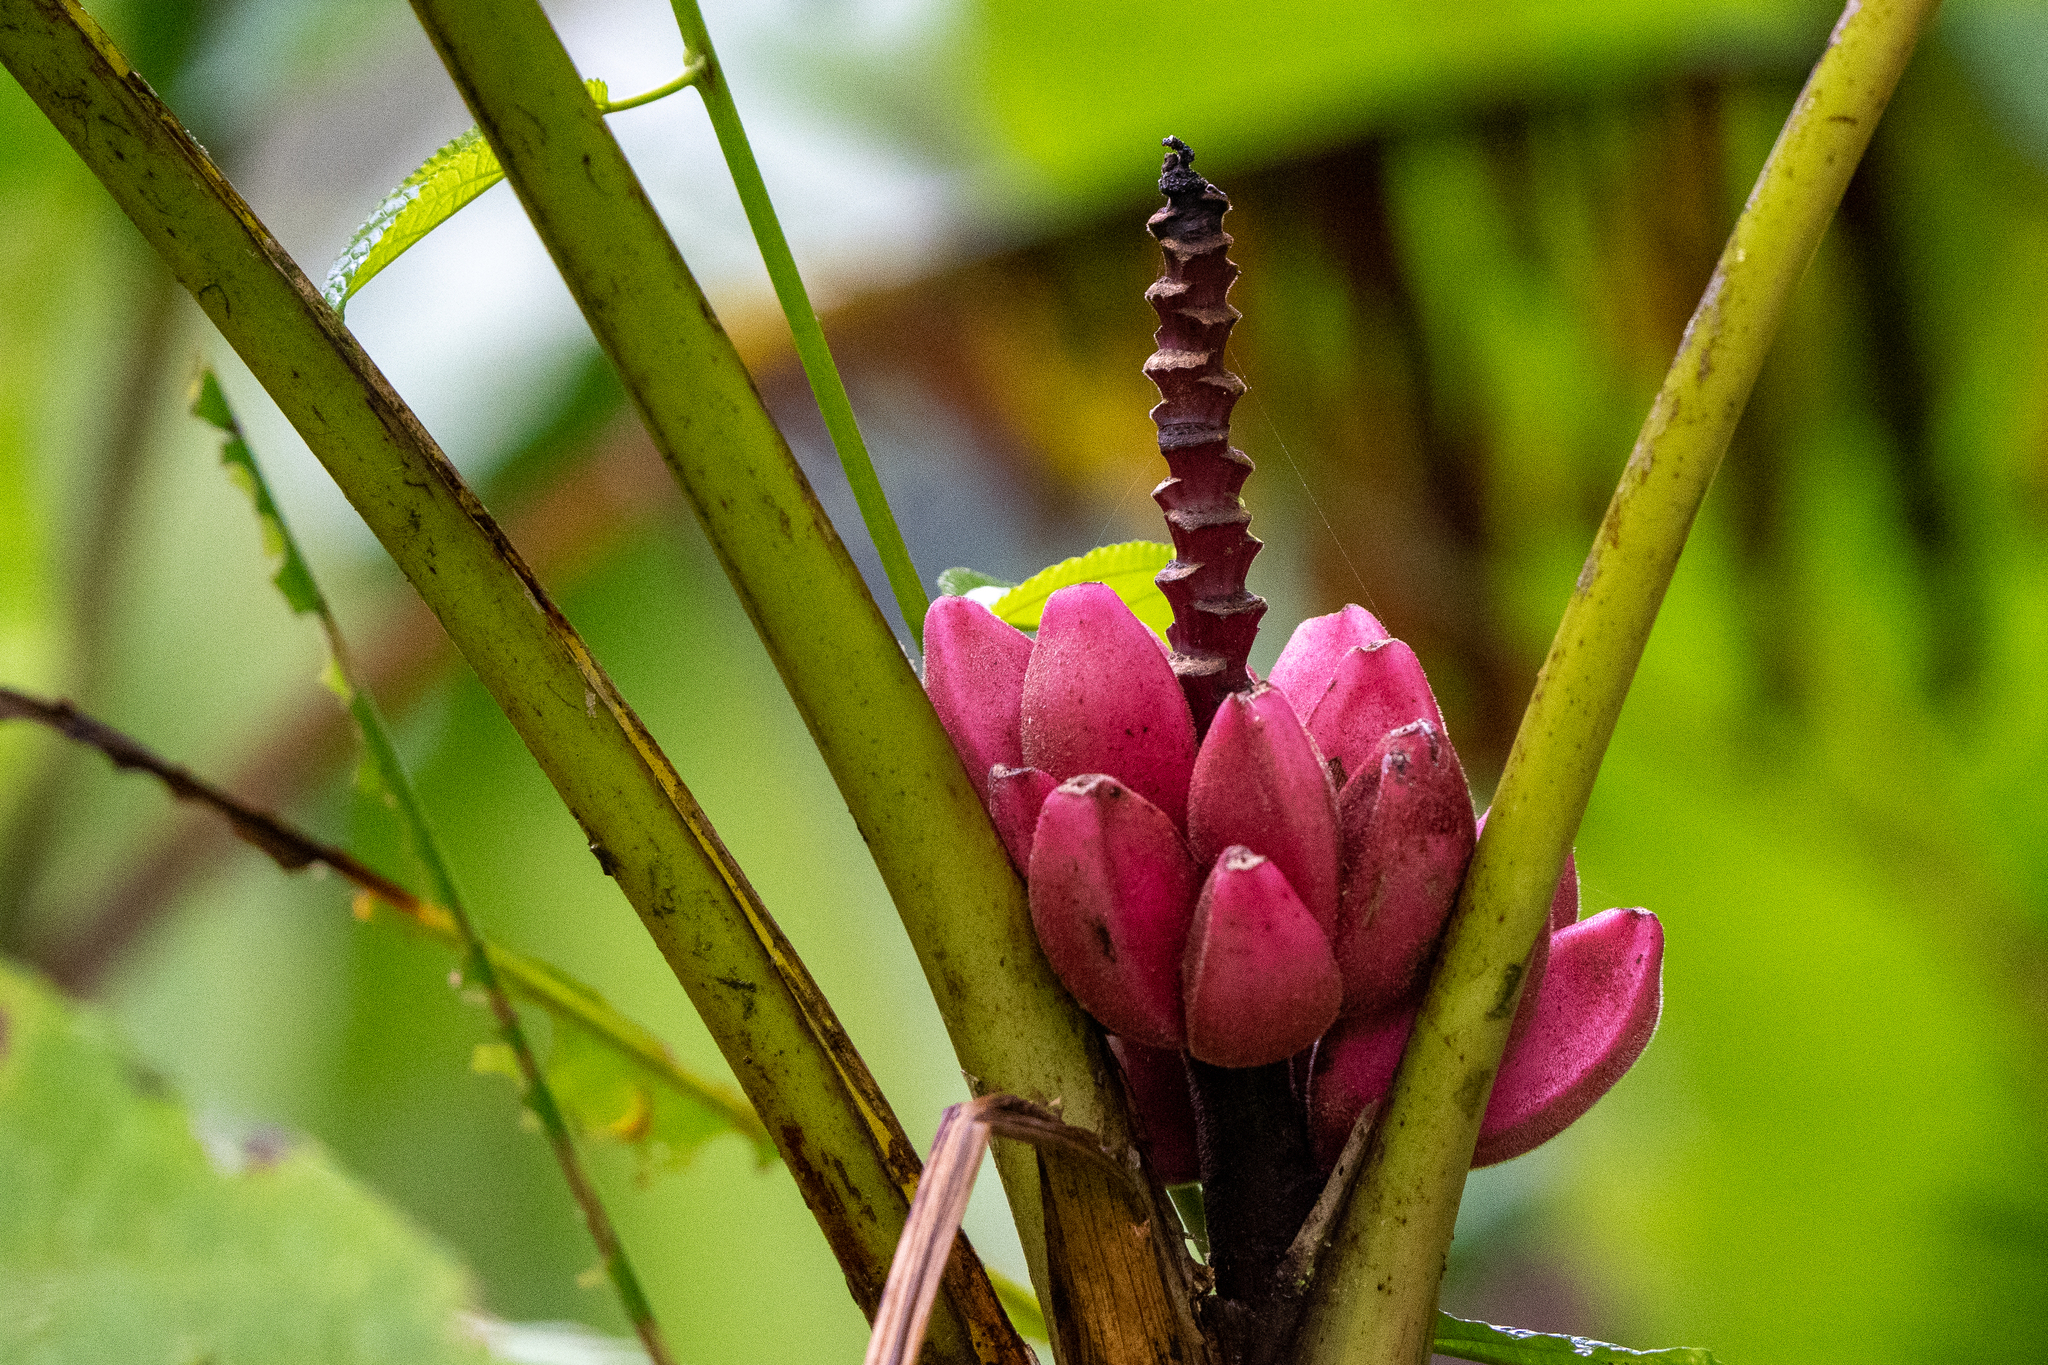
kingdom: Plantae
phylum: Tracheophyta
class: Liliopsida
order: Zingiberales
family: Musaceae
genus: Musa
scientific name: Musa velutina
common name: Pink velvet banana
